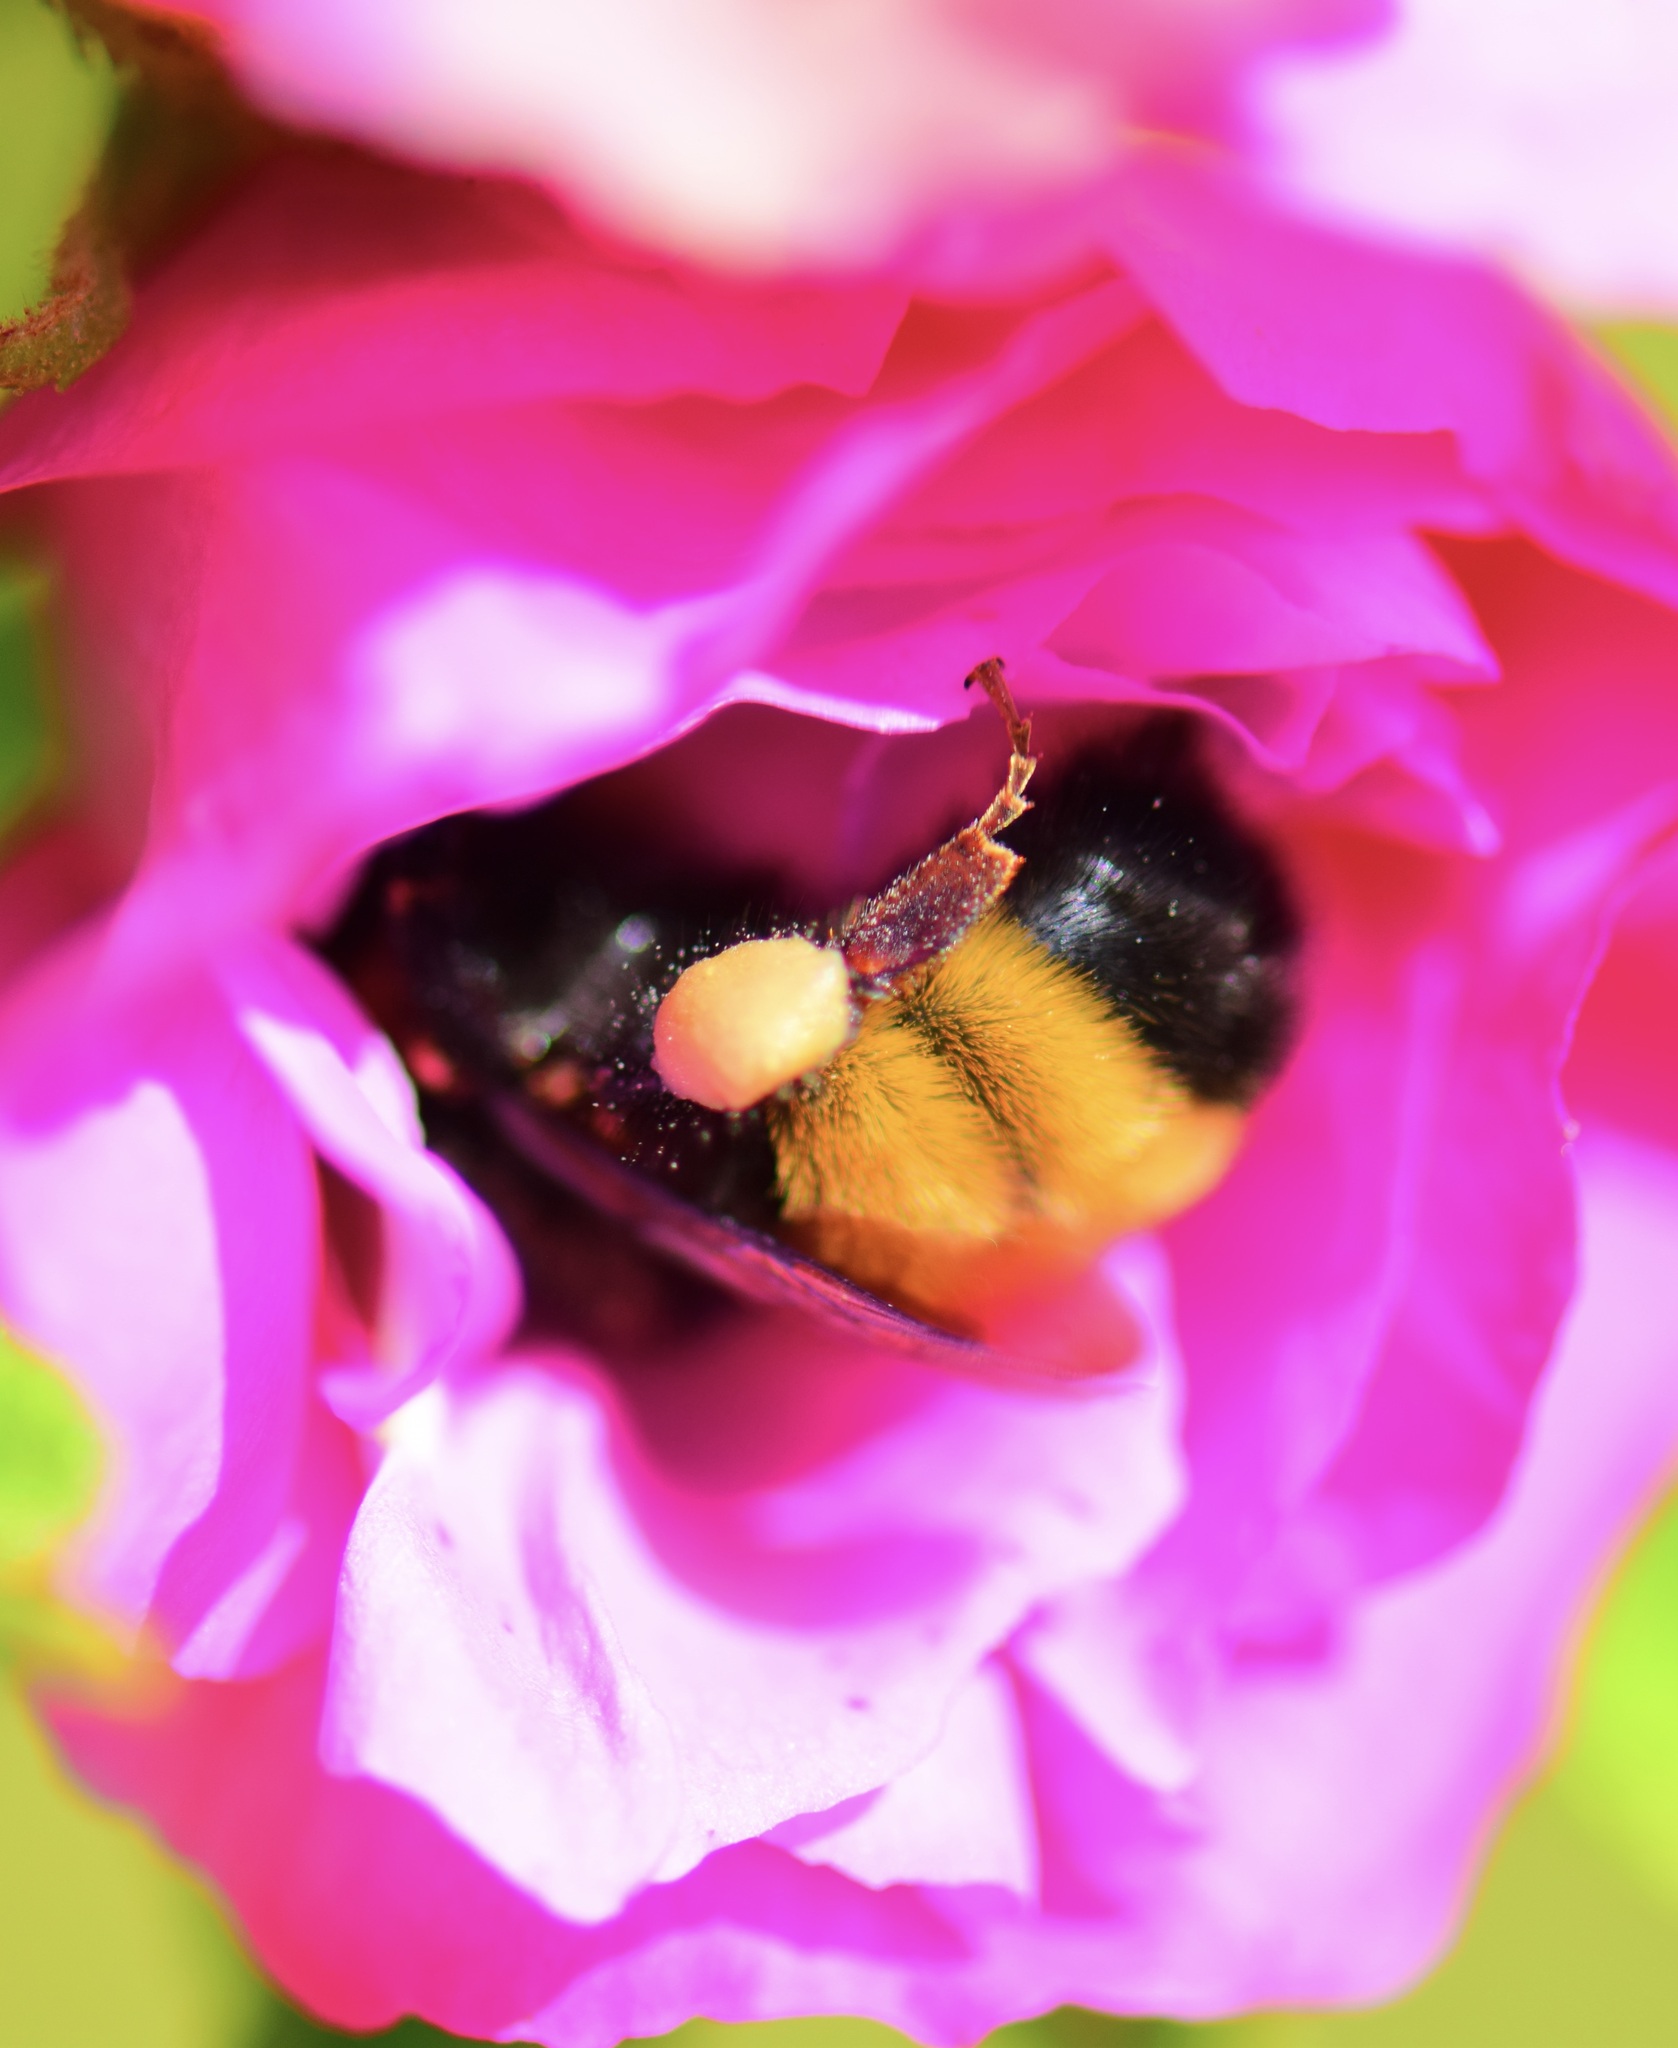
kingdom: Animalia
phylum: Arthropoda
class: Insecta
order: Hymenoptera
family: Apidae
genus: Bombus
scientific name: Bombus terricola
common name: Yellow-banded bumble bee
